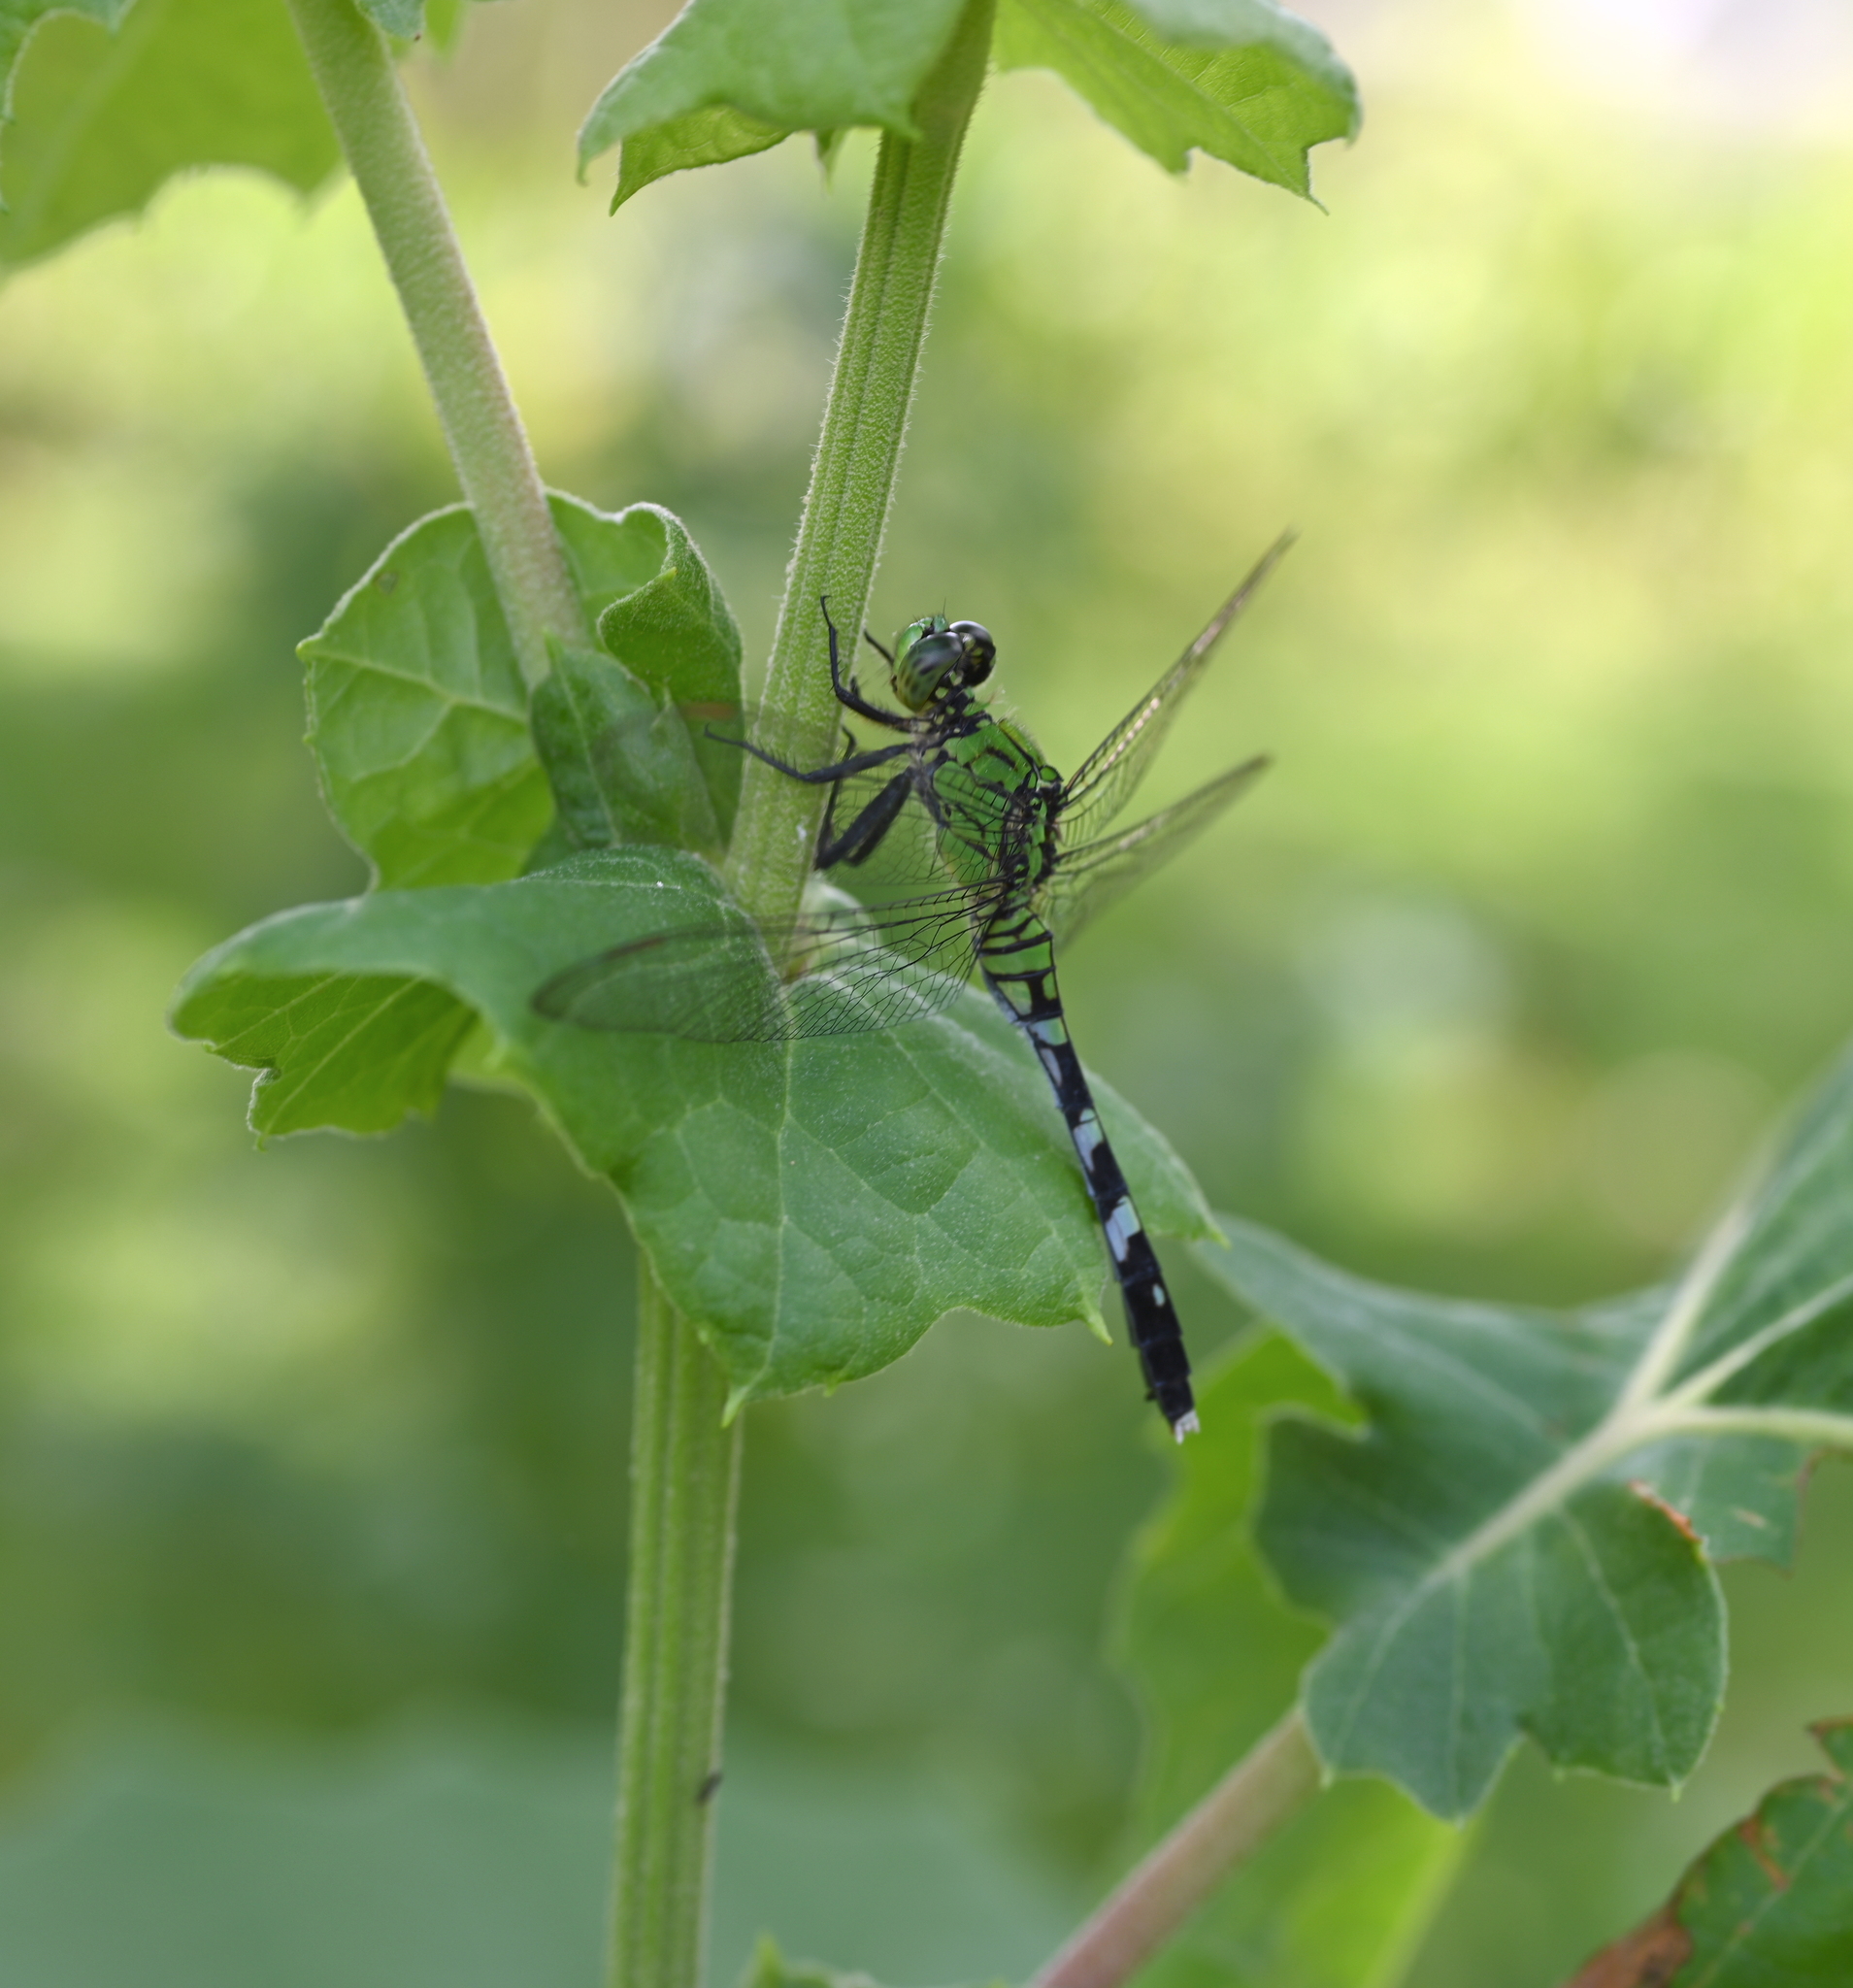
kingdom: Animalia
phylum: Arthropoda
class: Insecta
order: Odonata
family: Libellulidae
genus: Erythemis
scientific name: Erythemis simplicicollis
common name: Eastern pondhawk
